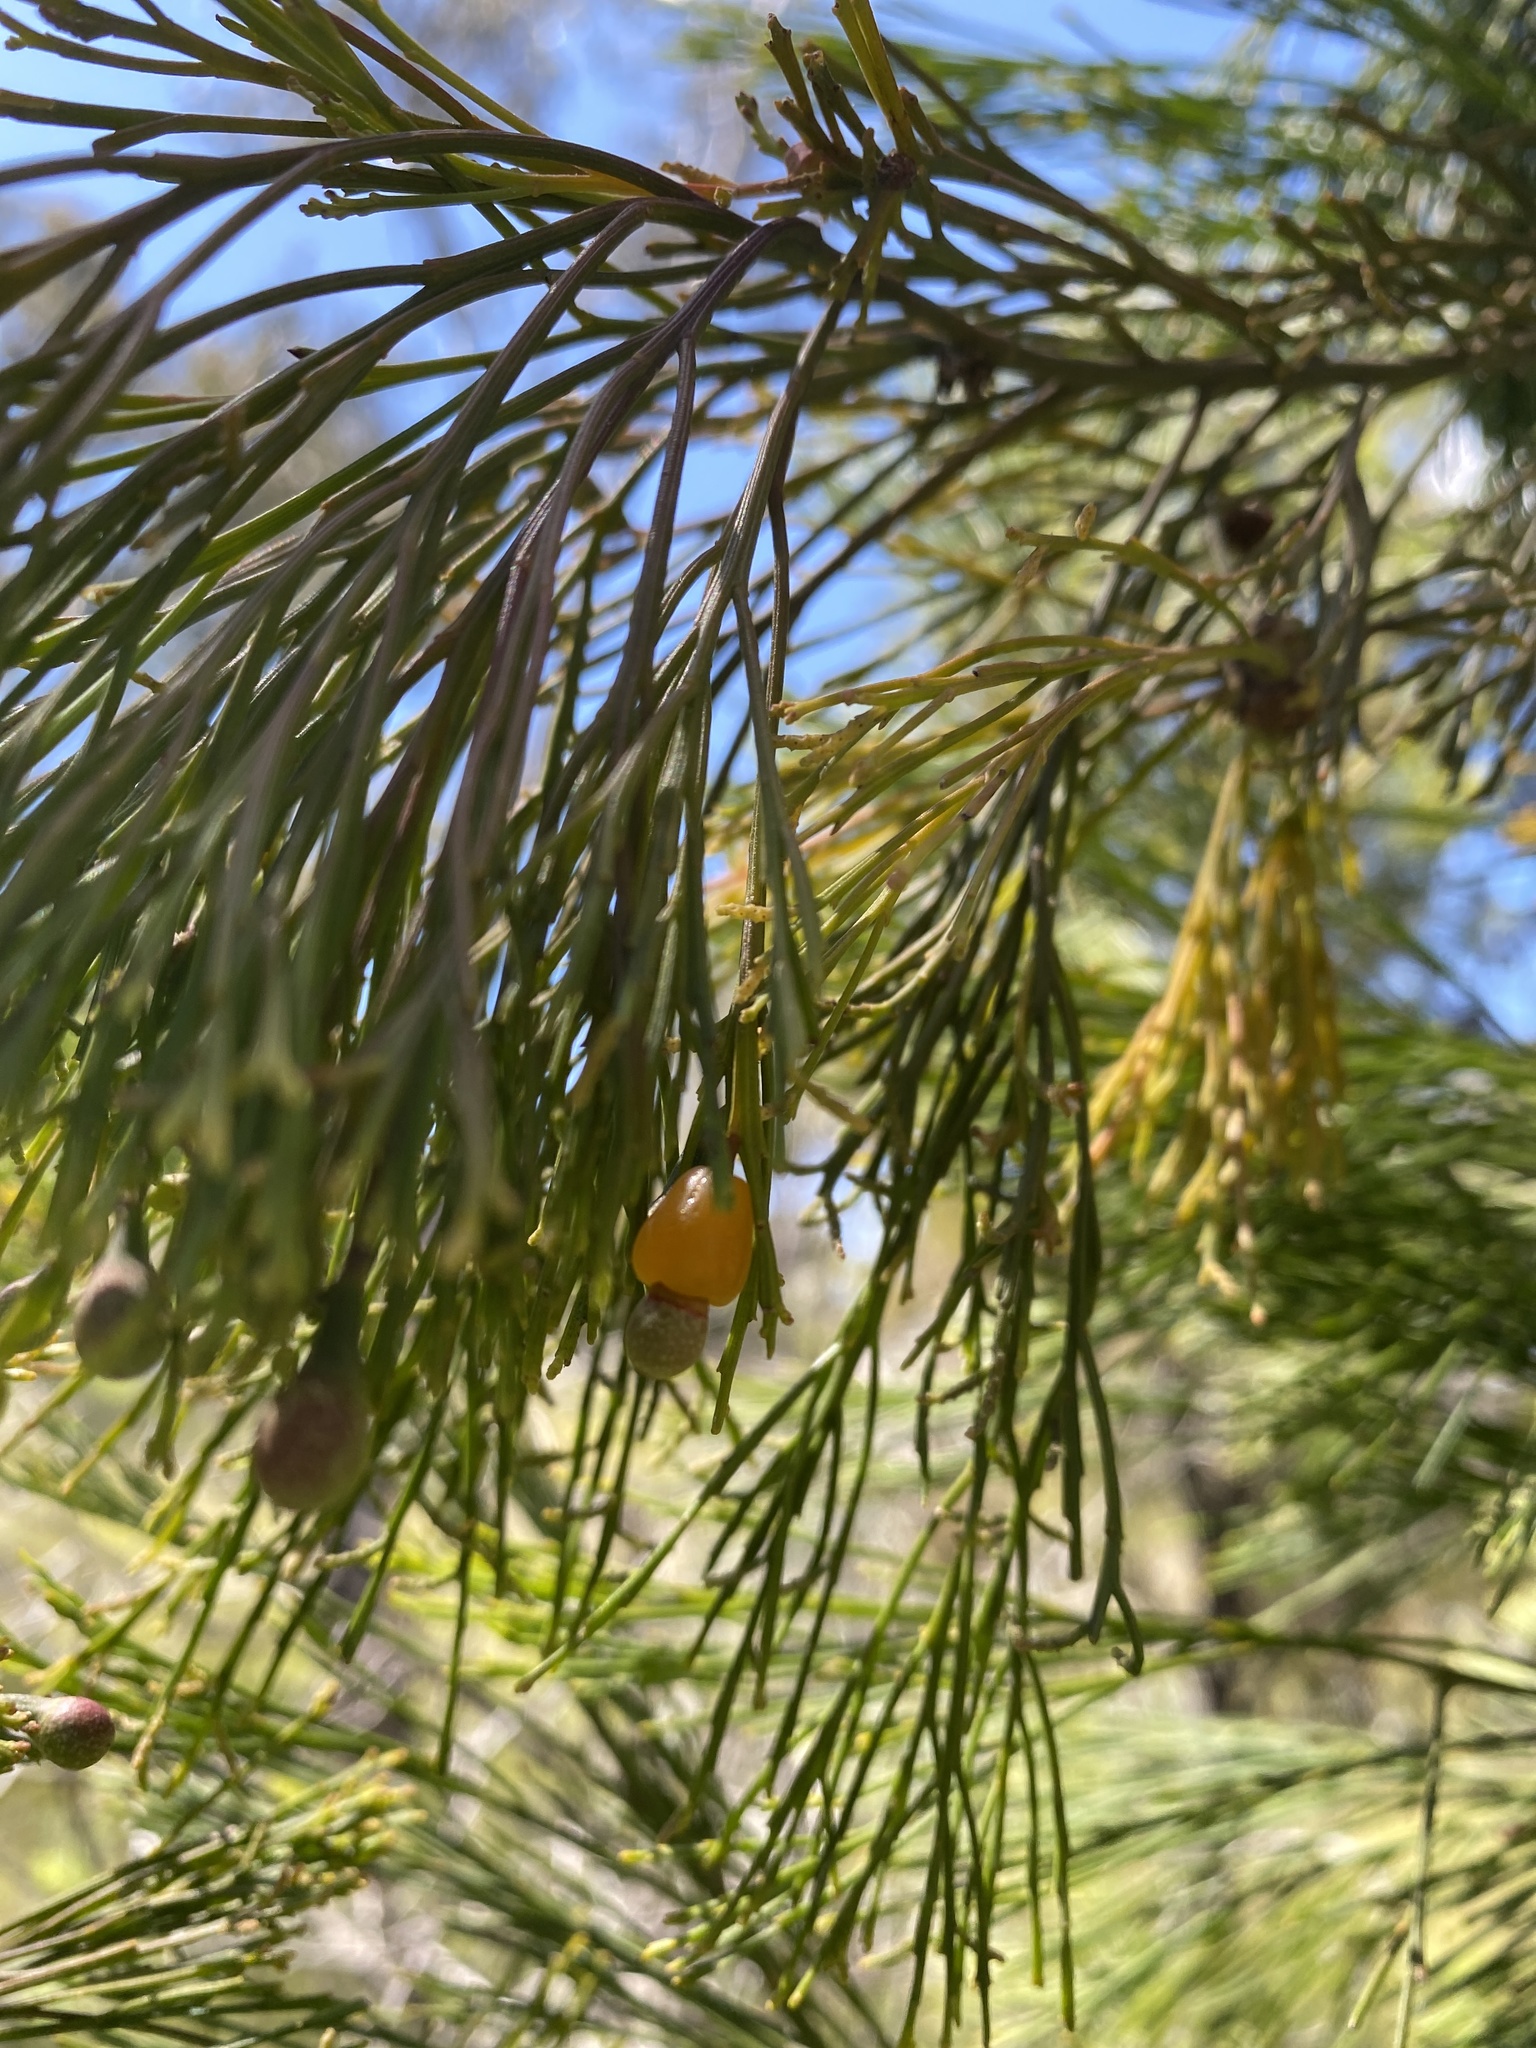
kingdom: Plantae
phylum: Tracheophyta
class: Magnoliopsida
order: Santalales
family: Santalaceae
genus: Exocarpos
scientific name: Exocarpos cupressiformis
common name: Cherry ballart
